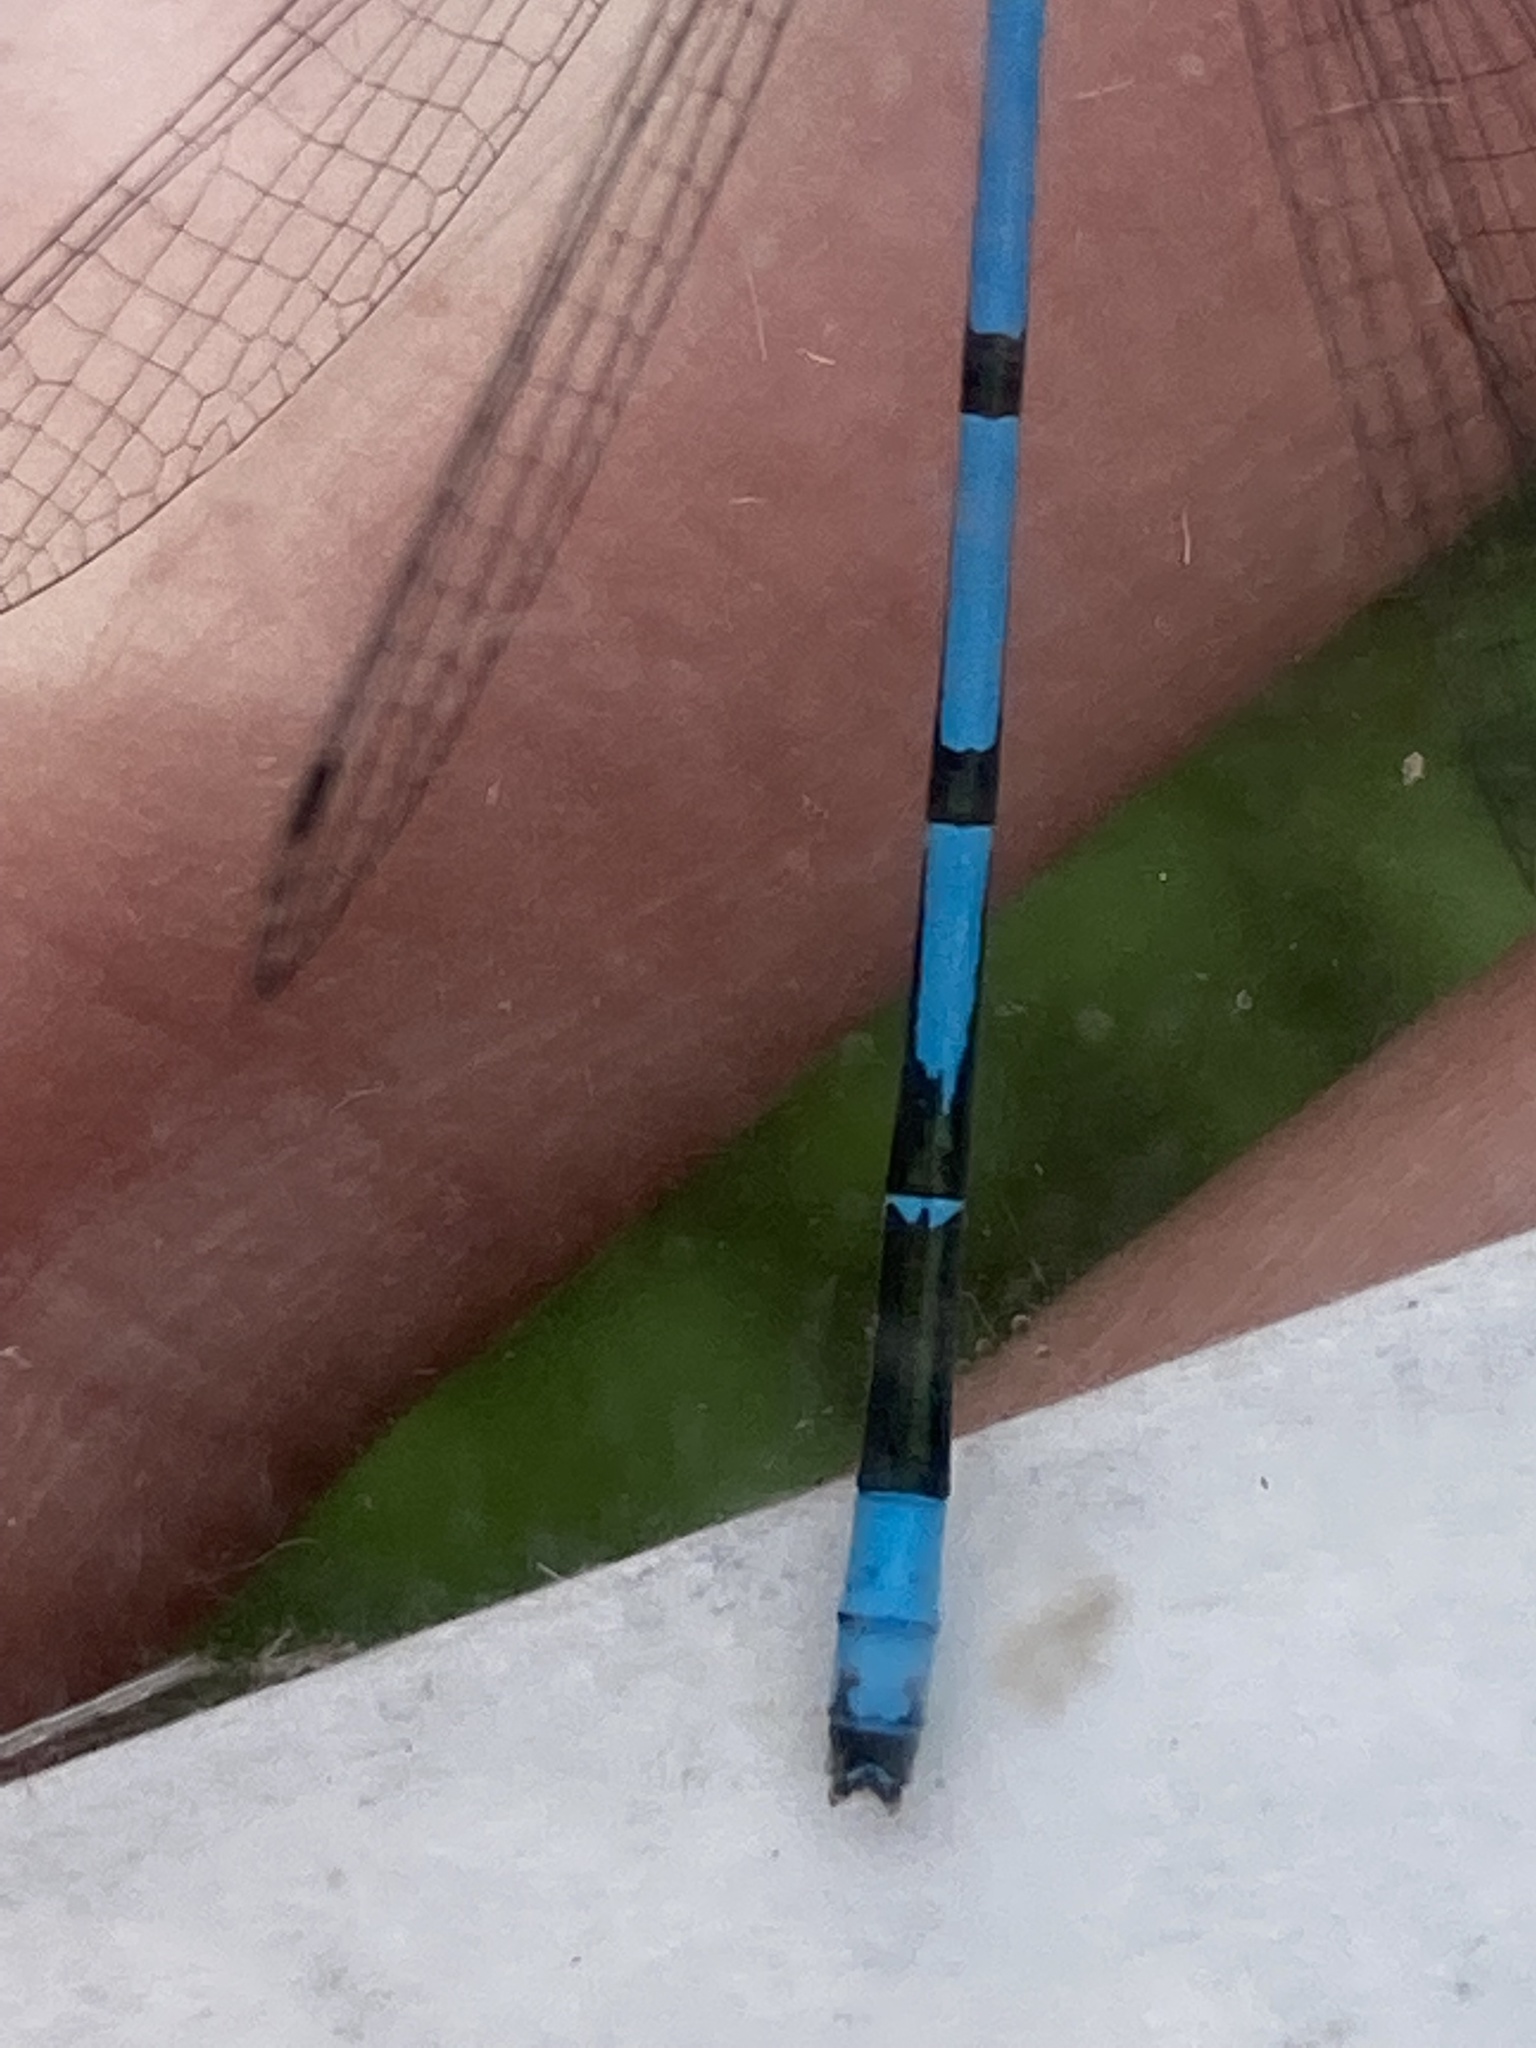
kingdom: Animalia
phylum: Arthropoda
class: Insecta
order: Odonata
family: Coenagrionidae
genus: Coenagrion
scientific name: Coenagrion puella
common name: Azure damselfly
